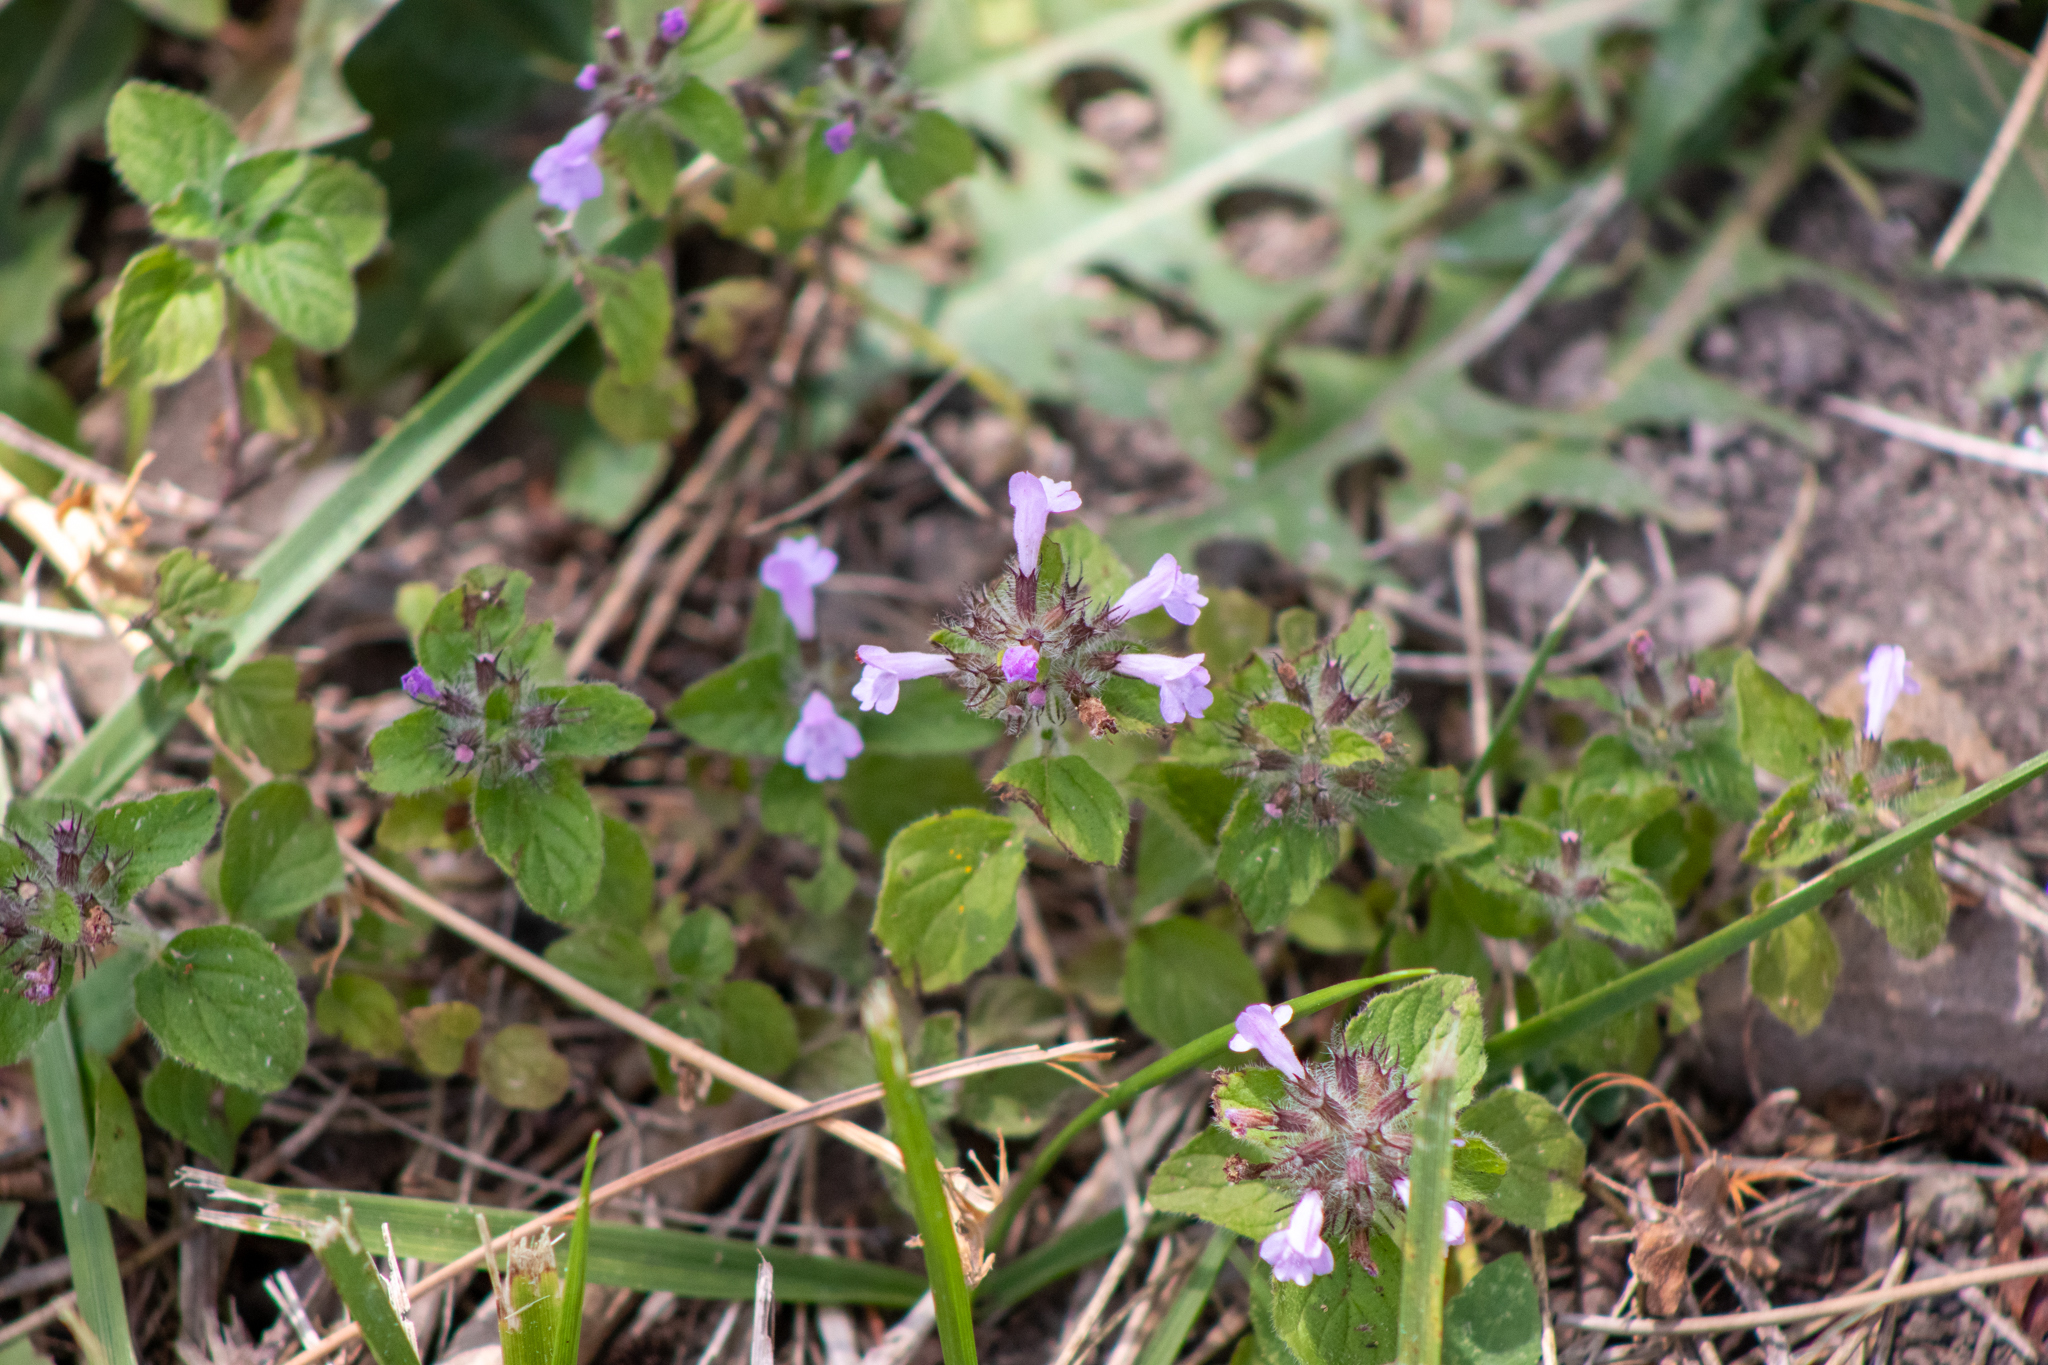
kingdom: Plantae
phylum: Tracheophyta
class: Magnoliopsida
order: Lamiales
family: Lamiaceae
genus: Clinopodium
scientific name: Clinopodium vulgare
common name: Wild basil
